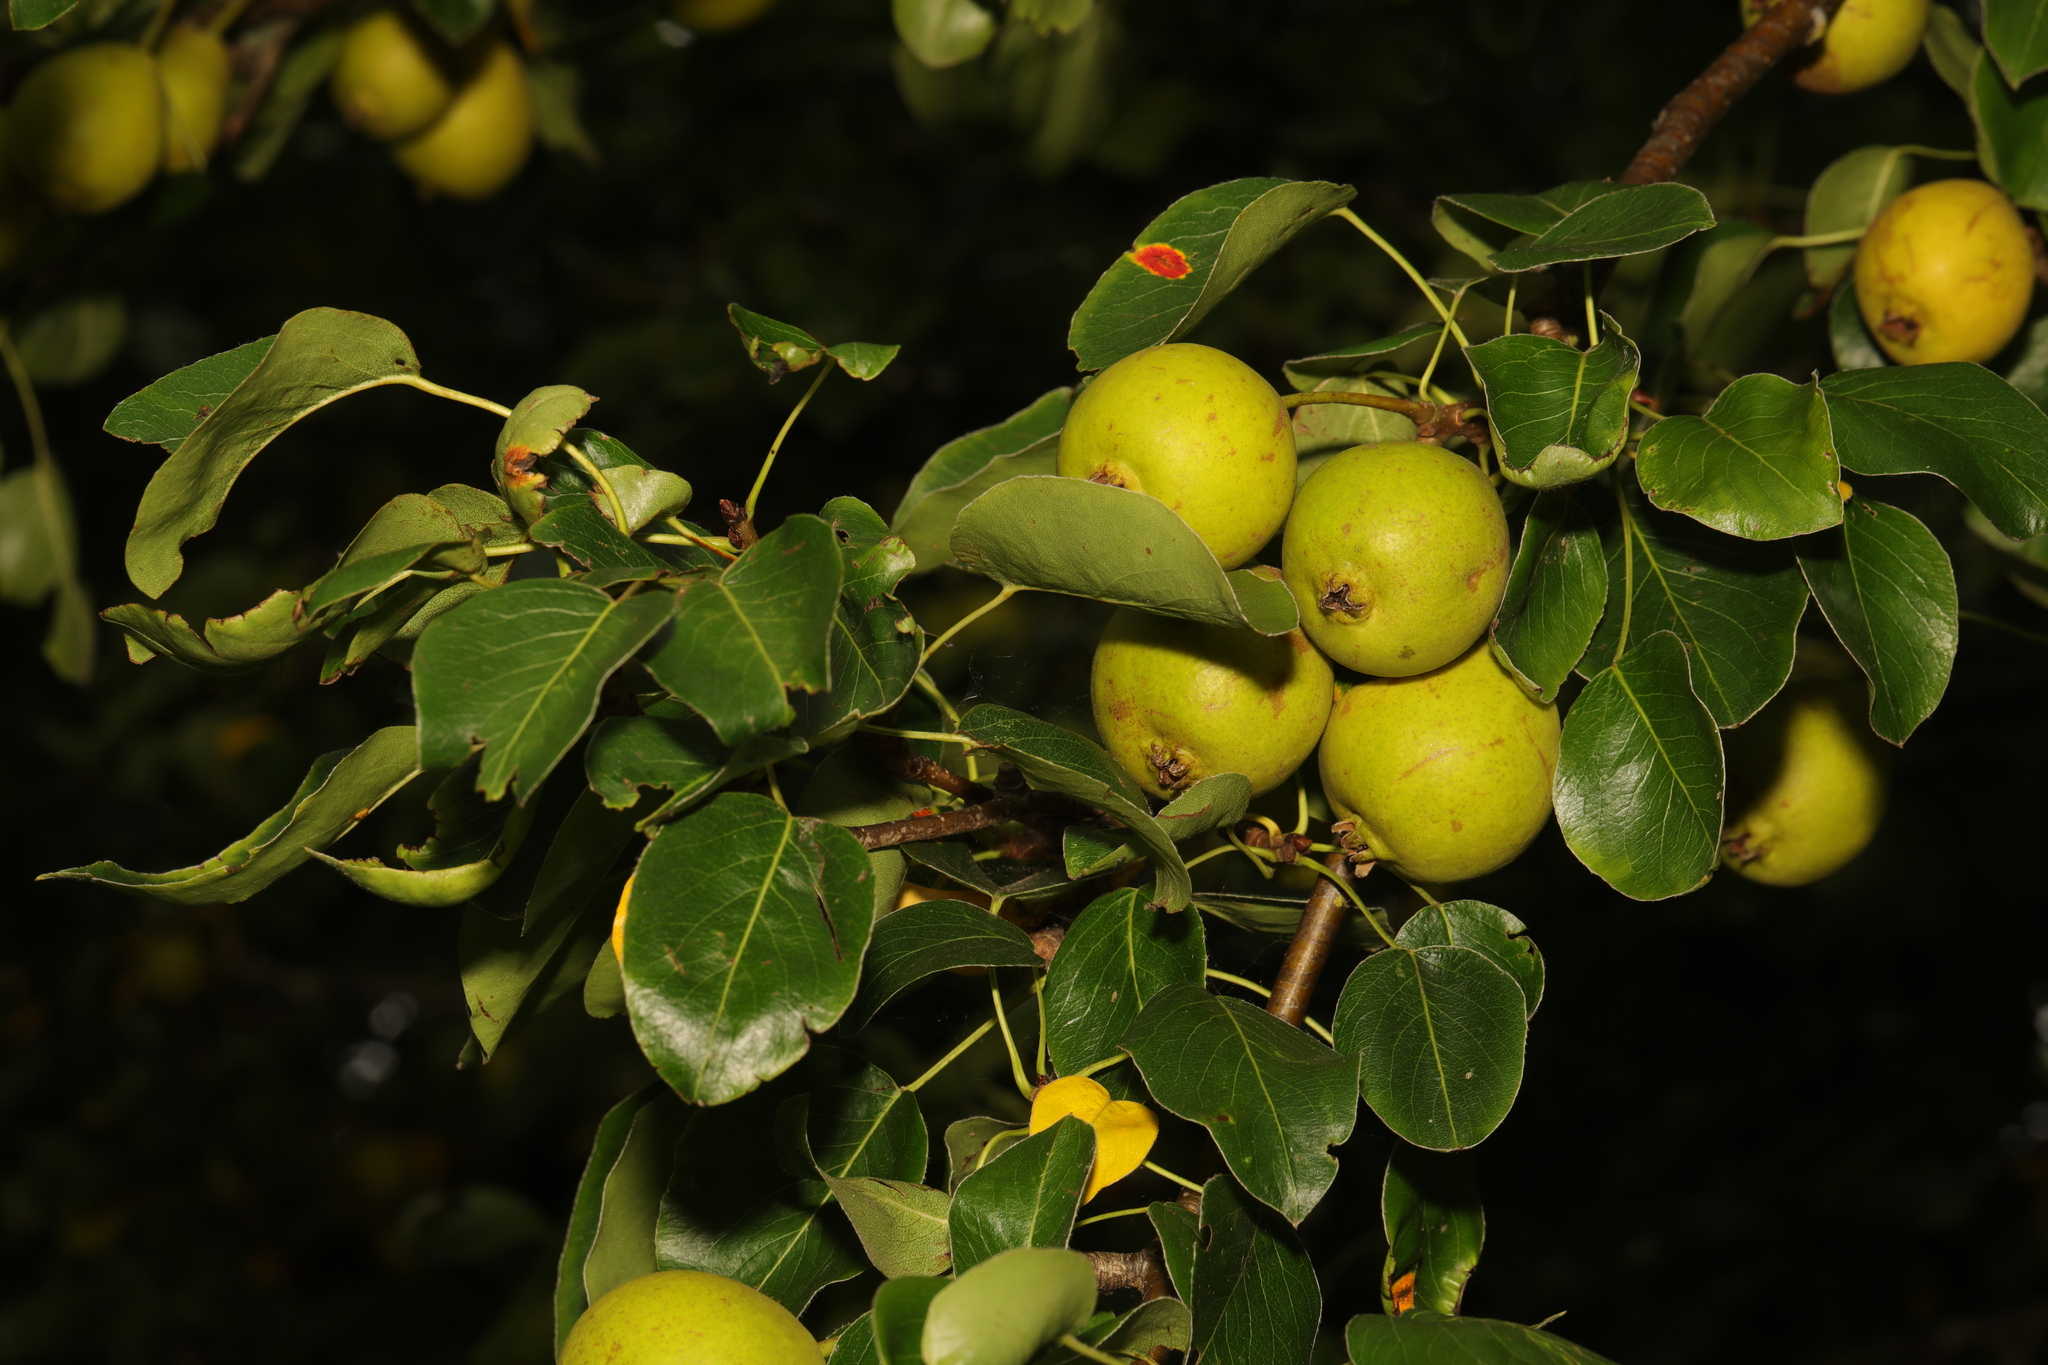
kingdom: Plantae
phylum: Tracheophyta
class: Magnoliopsida
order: Rosales
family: Rosaceae
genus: Malus
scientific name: Malus domestica
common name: Apple
